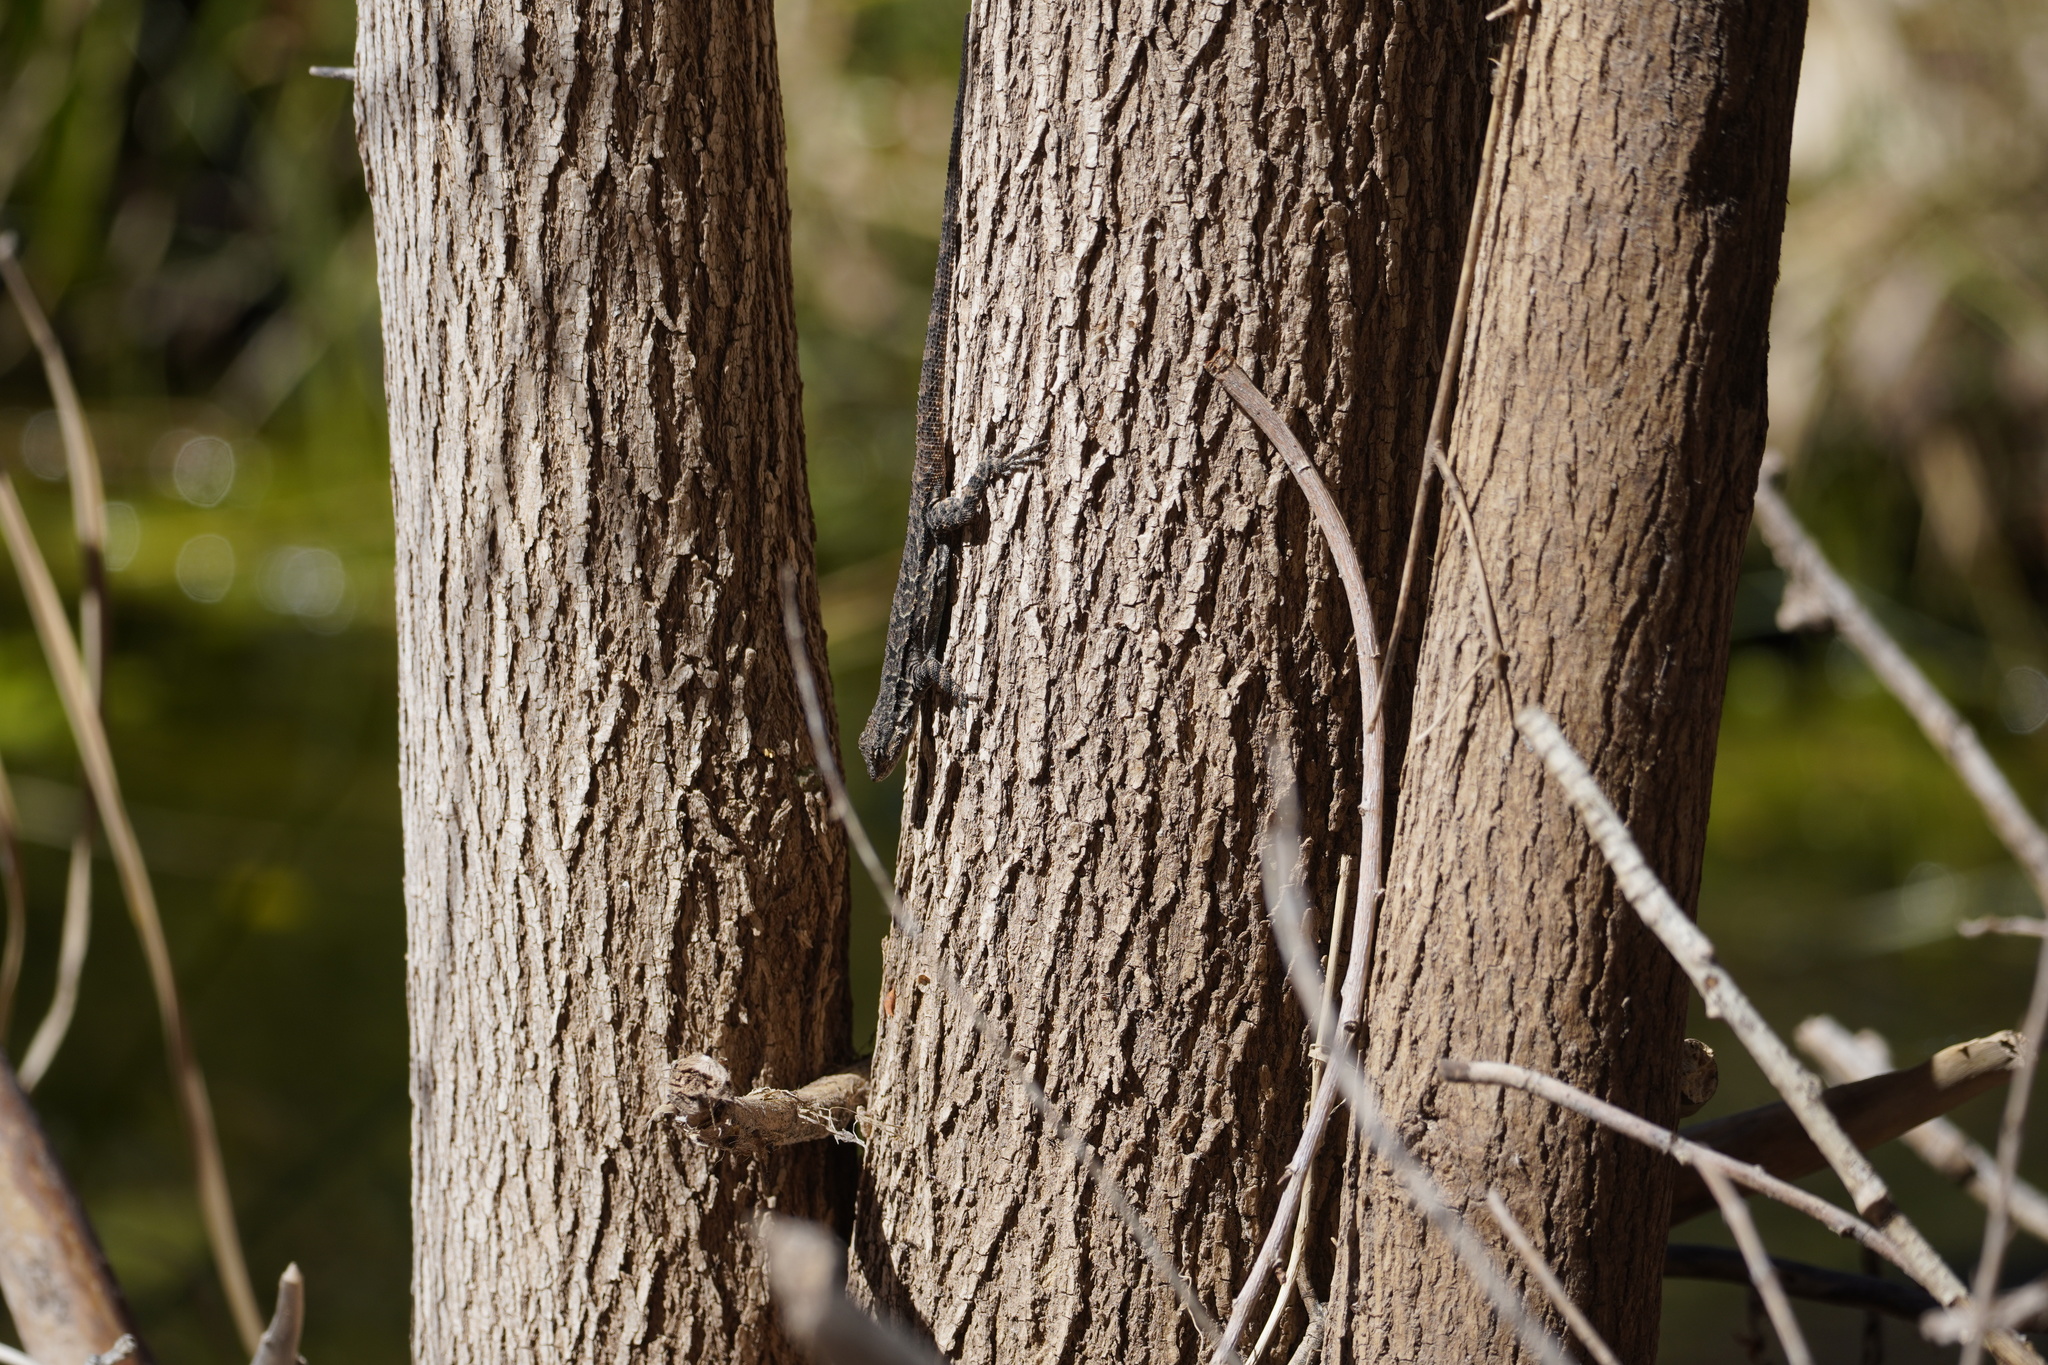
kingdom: Animalia
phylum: Chordata
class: Squamata
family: Phrynosomatidae
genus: Urosaurus
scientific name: Urosaurus ornatus
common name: Ornate tree lizard
